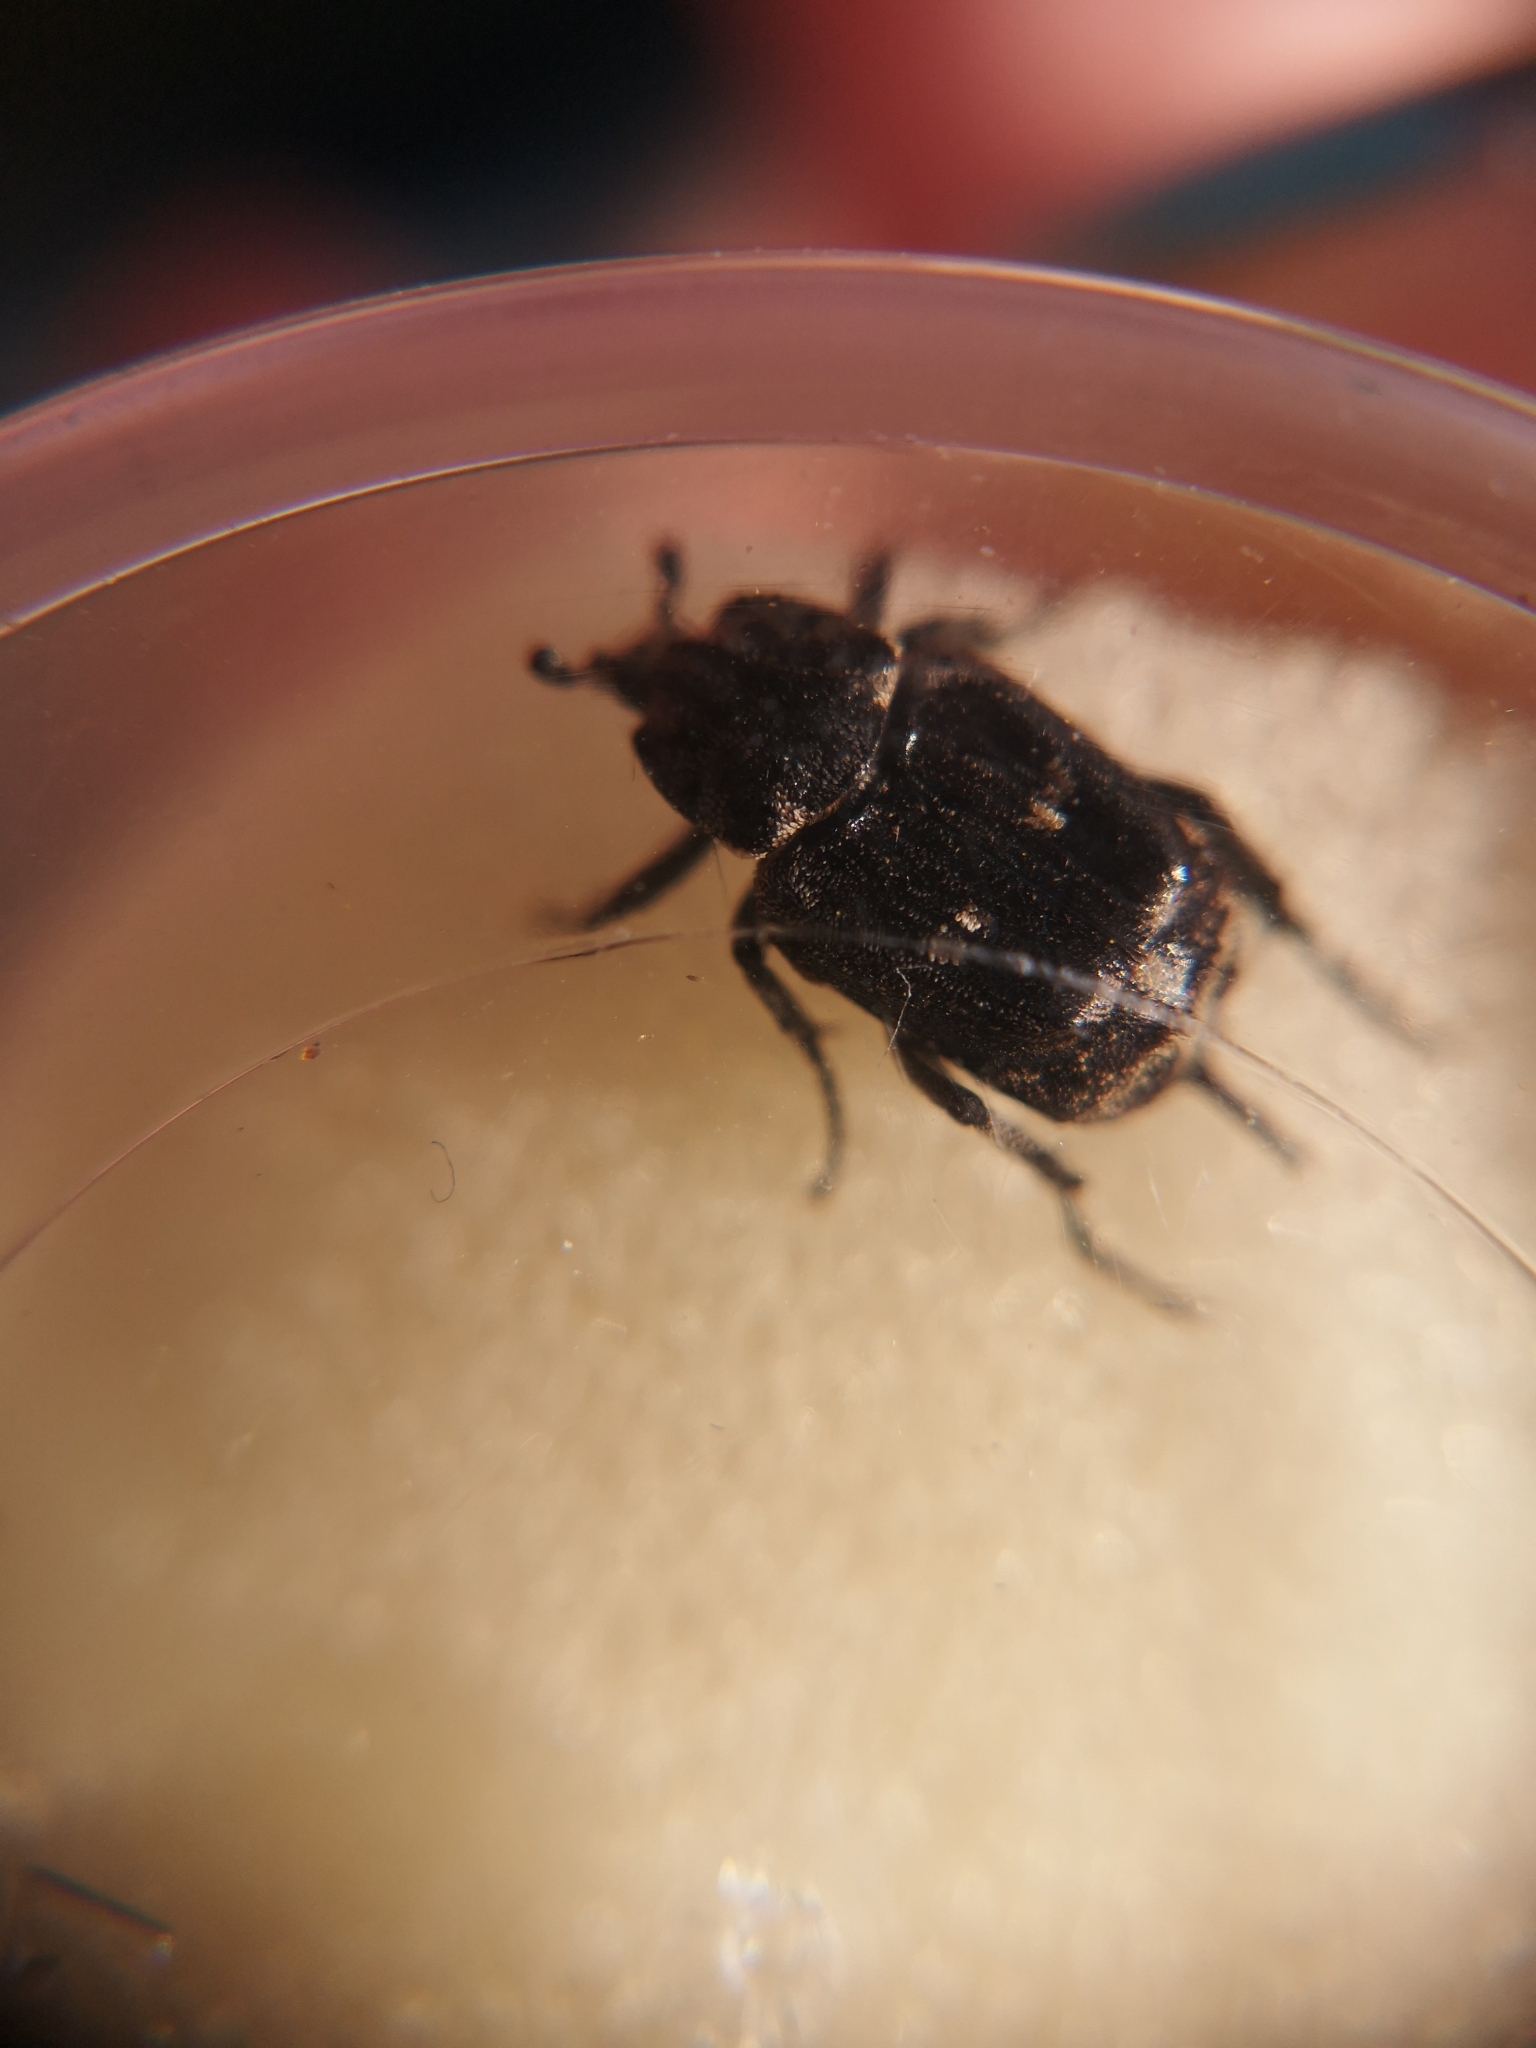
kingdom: Animalia
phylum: Arthropoda
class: Insecta
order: Coleoptera
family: Scarabaeidae
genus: Valgus
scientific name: Valgus hemipterus
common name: Bug flower chafer
